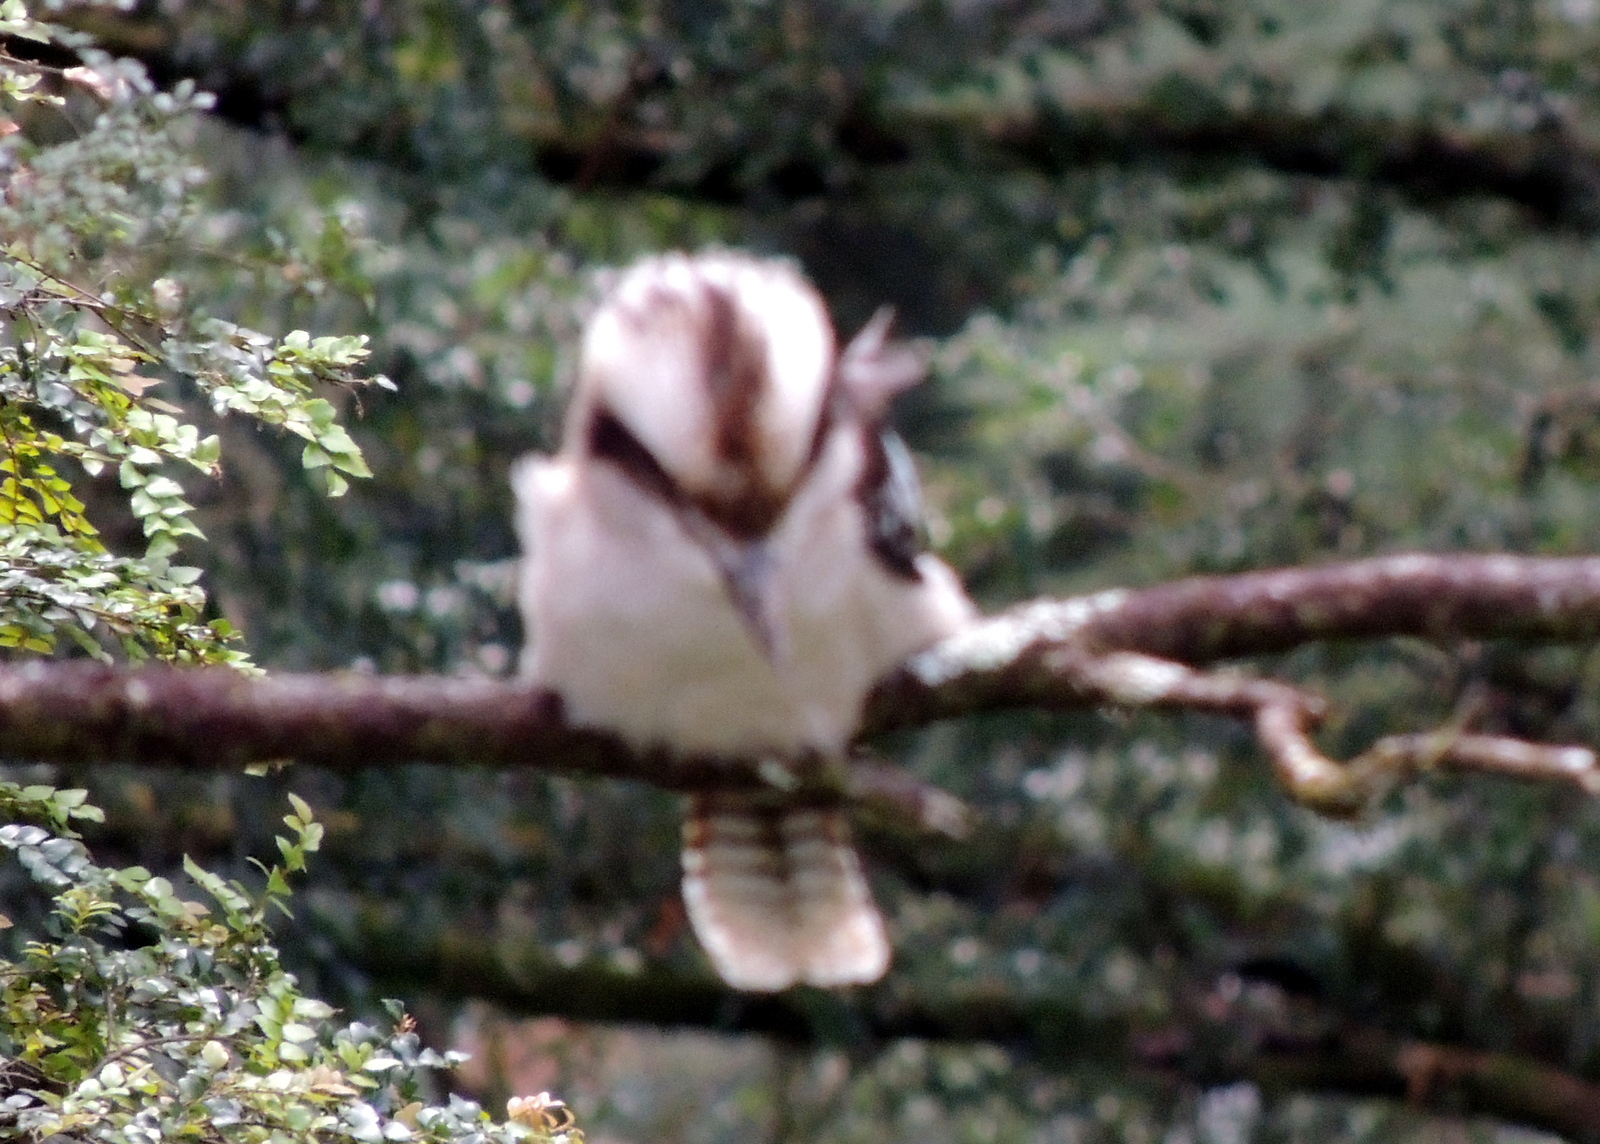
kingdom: Animalia
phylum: Chordata
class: Aves
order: Coraciiformes
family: Alcedinidae
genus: Dacelo
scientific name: Dacelo novaeguineae
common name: Laughing kookaburra
